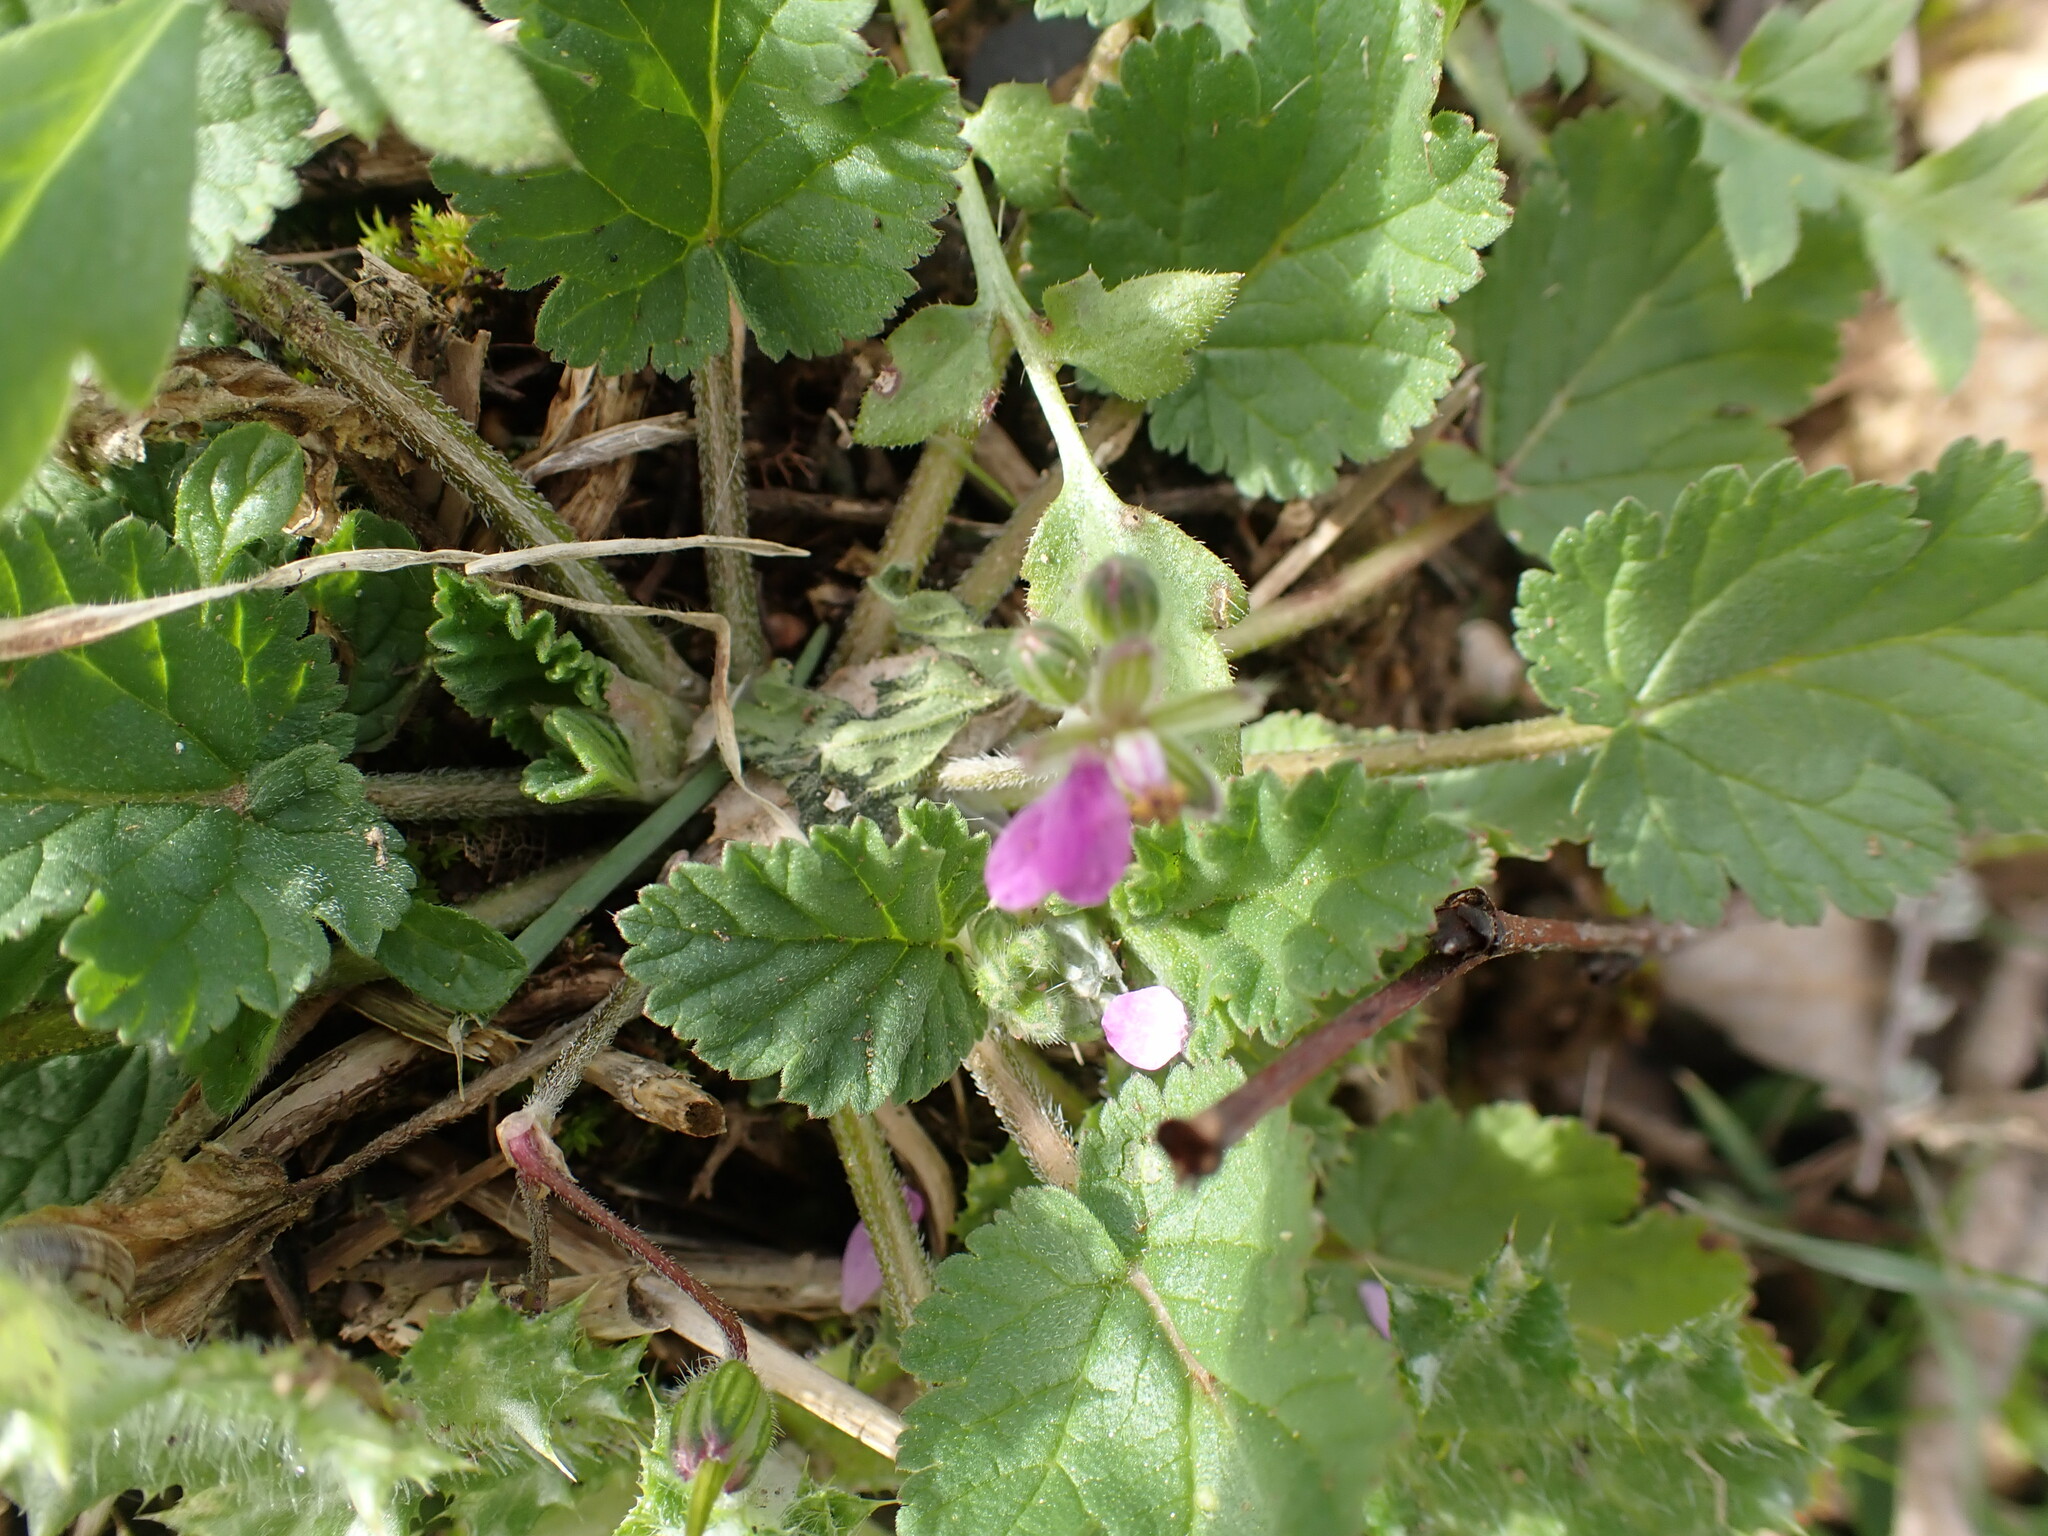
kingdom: Plantae
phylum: Tracheophyta
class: Magnoliopsida
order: Geraniales
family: Geraniaceae
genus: Erodium
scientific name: Erodium malacoides
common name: Soft stork's-bill
